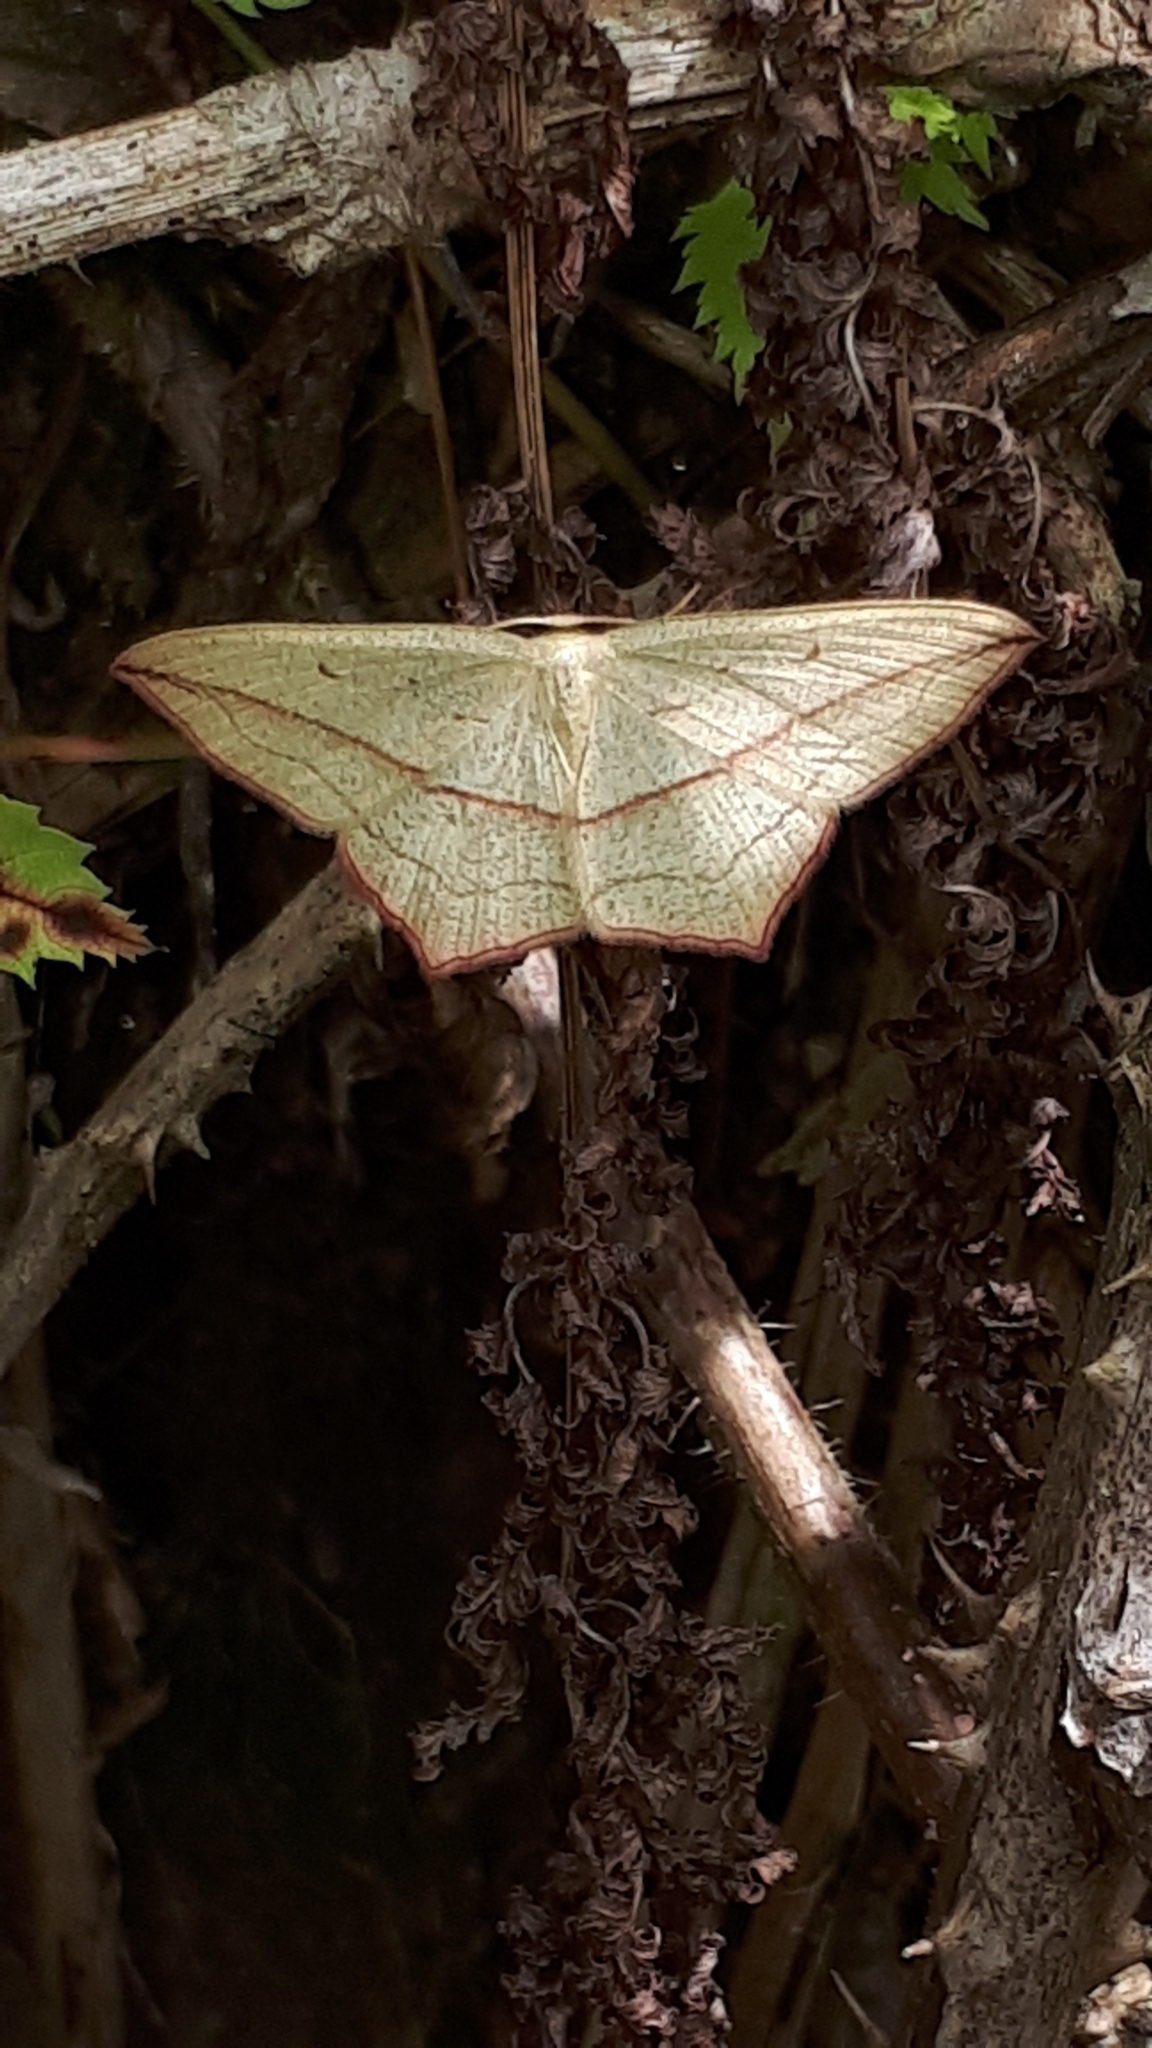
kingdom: Animalia
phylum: Arthropoda
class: Insecta
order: Lepidoptera
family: Geometridae
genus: Timandra
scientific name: Timandra comae
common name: Blood-vein
